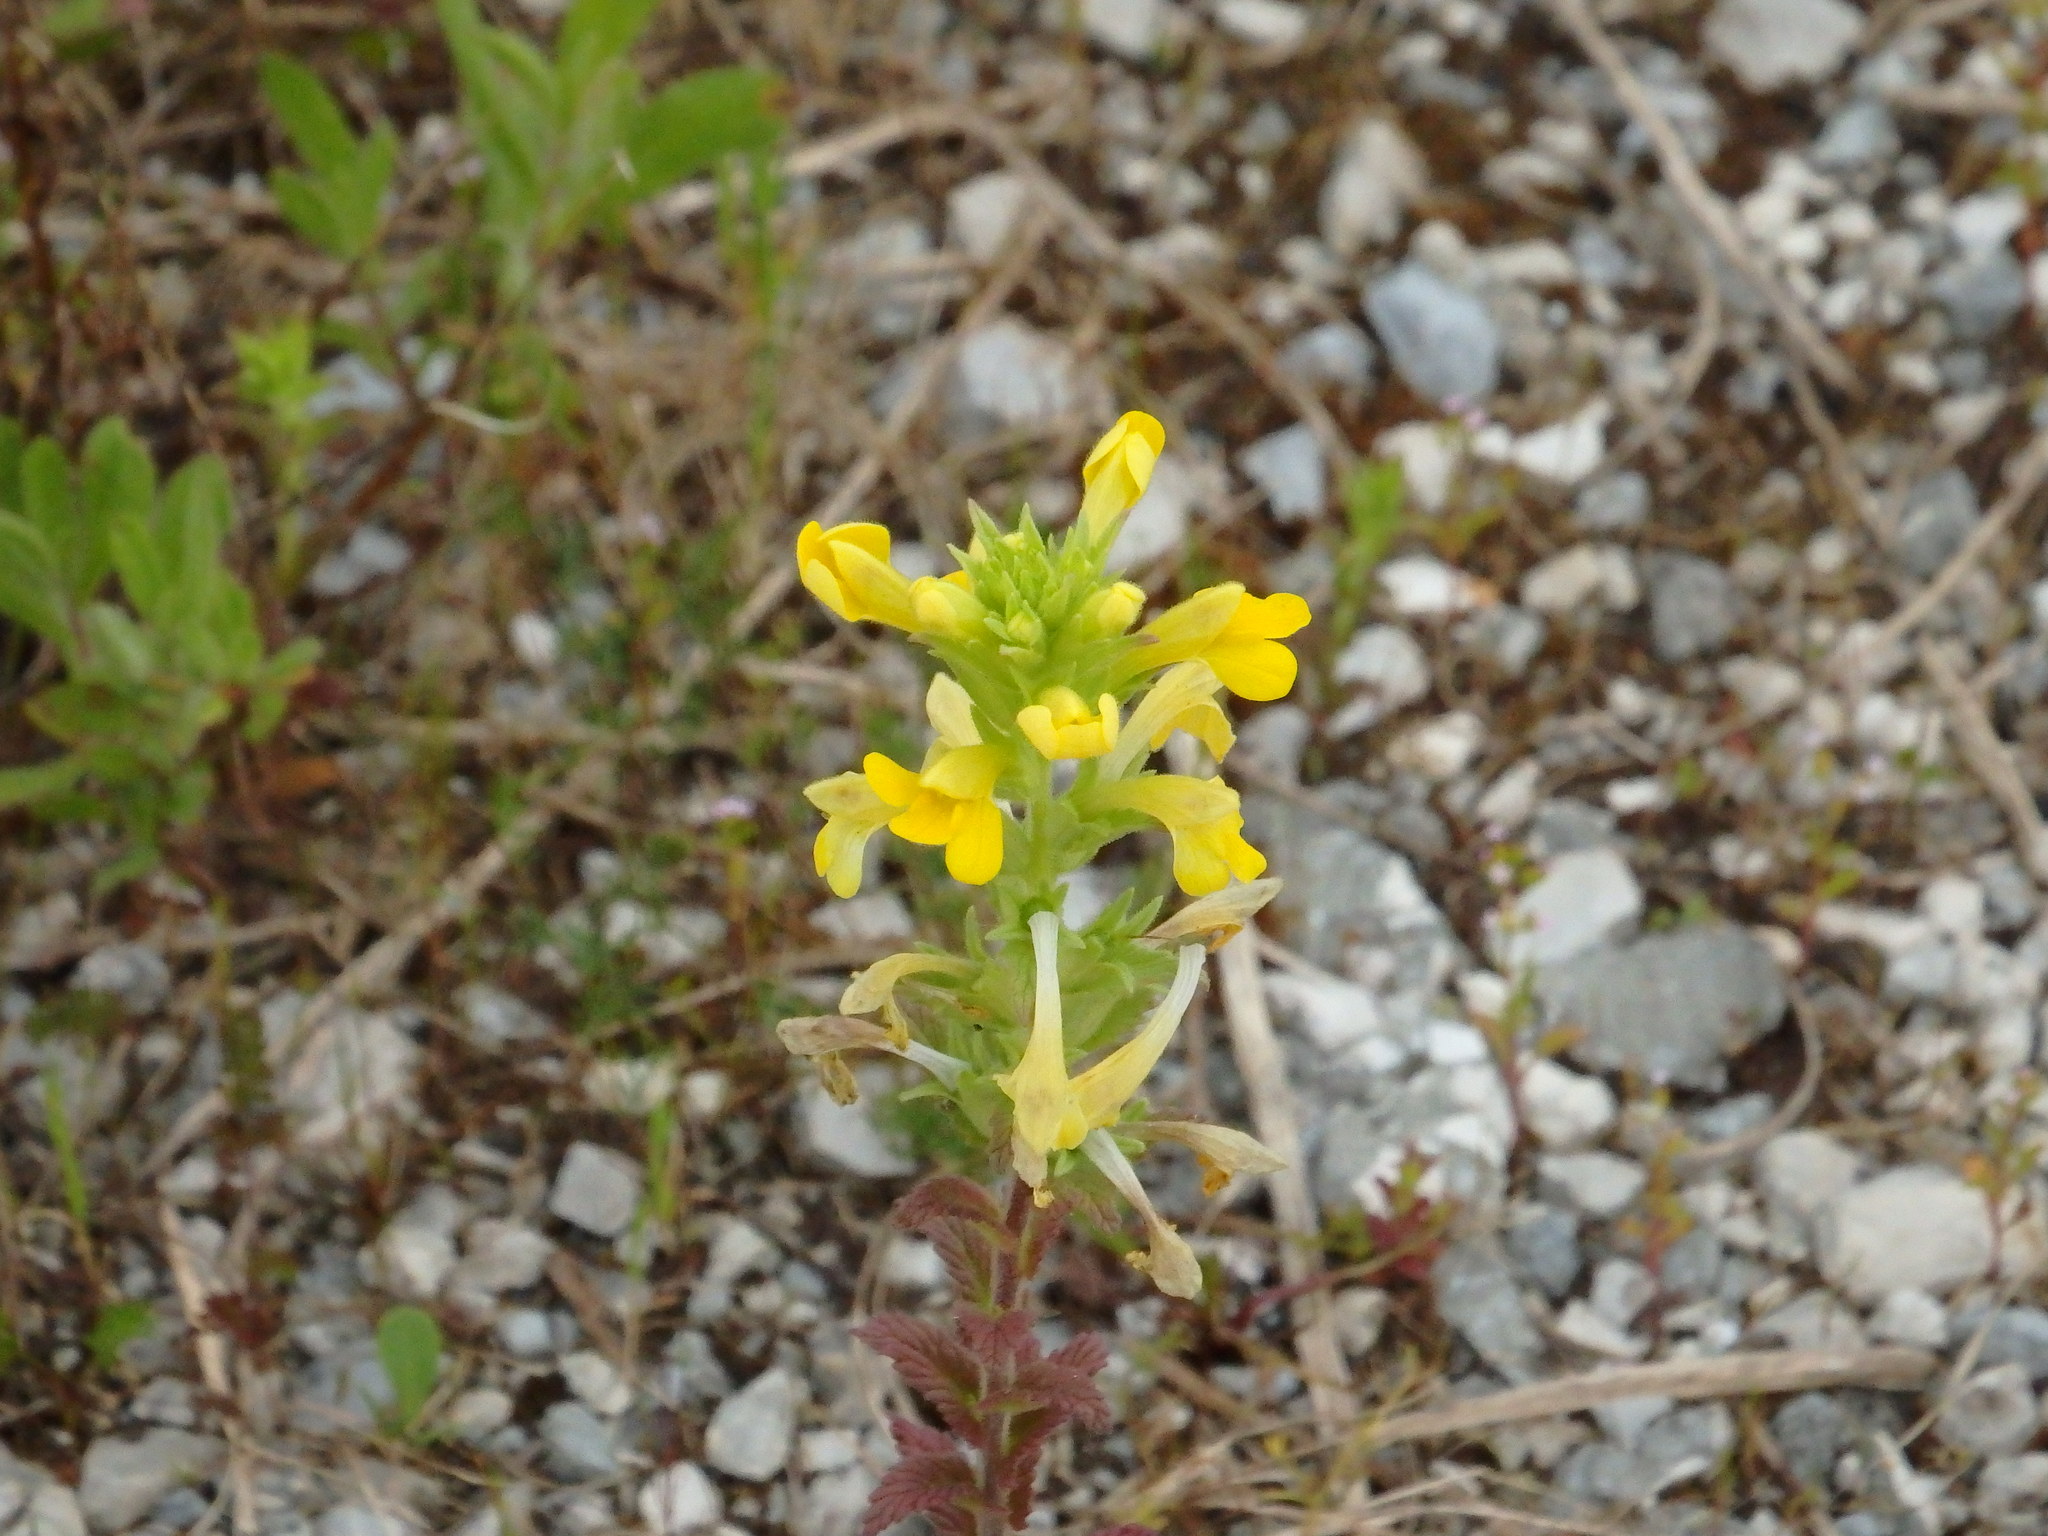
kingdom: Plantae
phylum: Tracheophyta
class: Magnoliopsida
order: Lamiales
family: Orobanchaceae
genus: Bellardia
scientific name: Bellardia viscosa
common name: Sticky parentucellia
